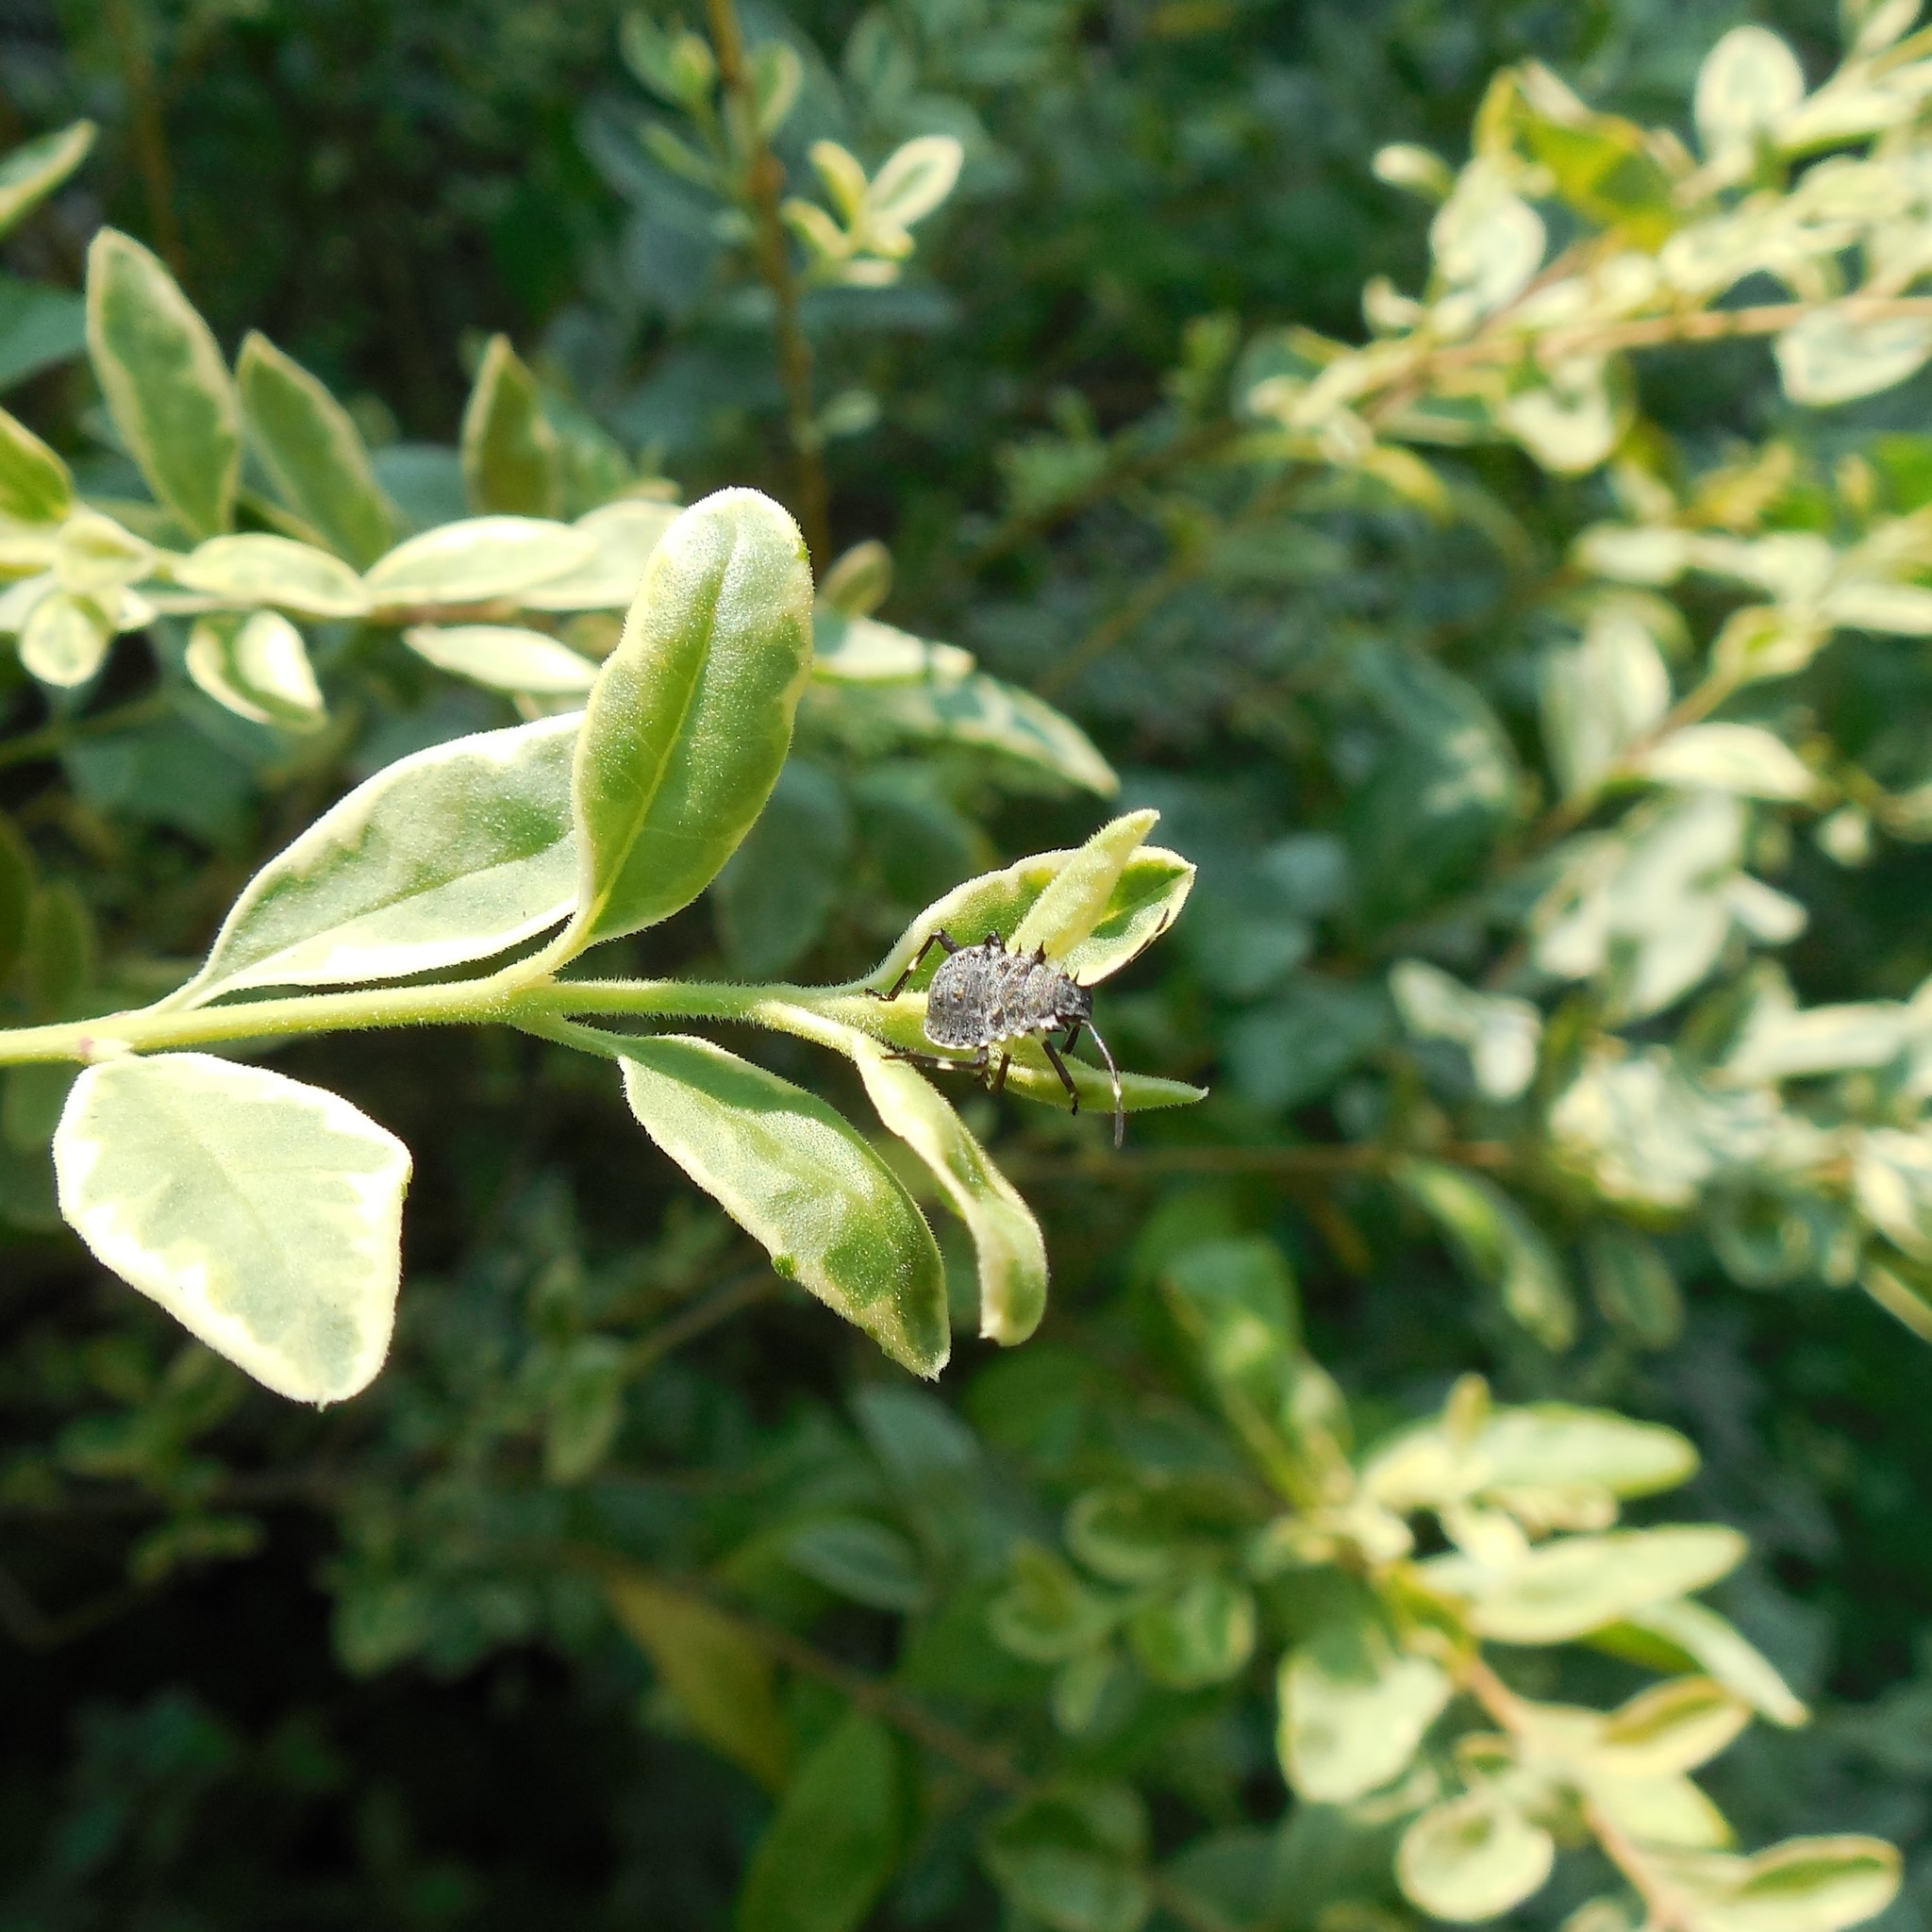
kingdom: Animalia
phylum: Arthropoda
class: Insecta
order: Hemiptera
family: Pentatomidae
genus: Halyomorpha
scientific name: Halyomorpha halys
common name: Brown marmorated stink bug
